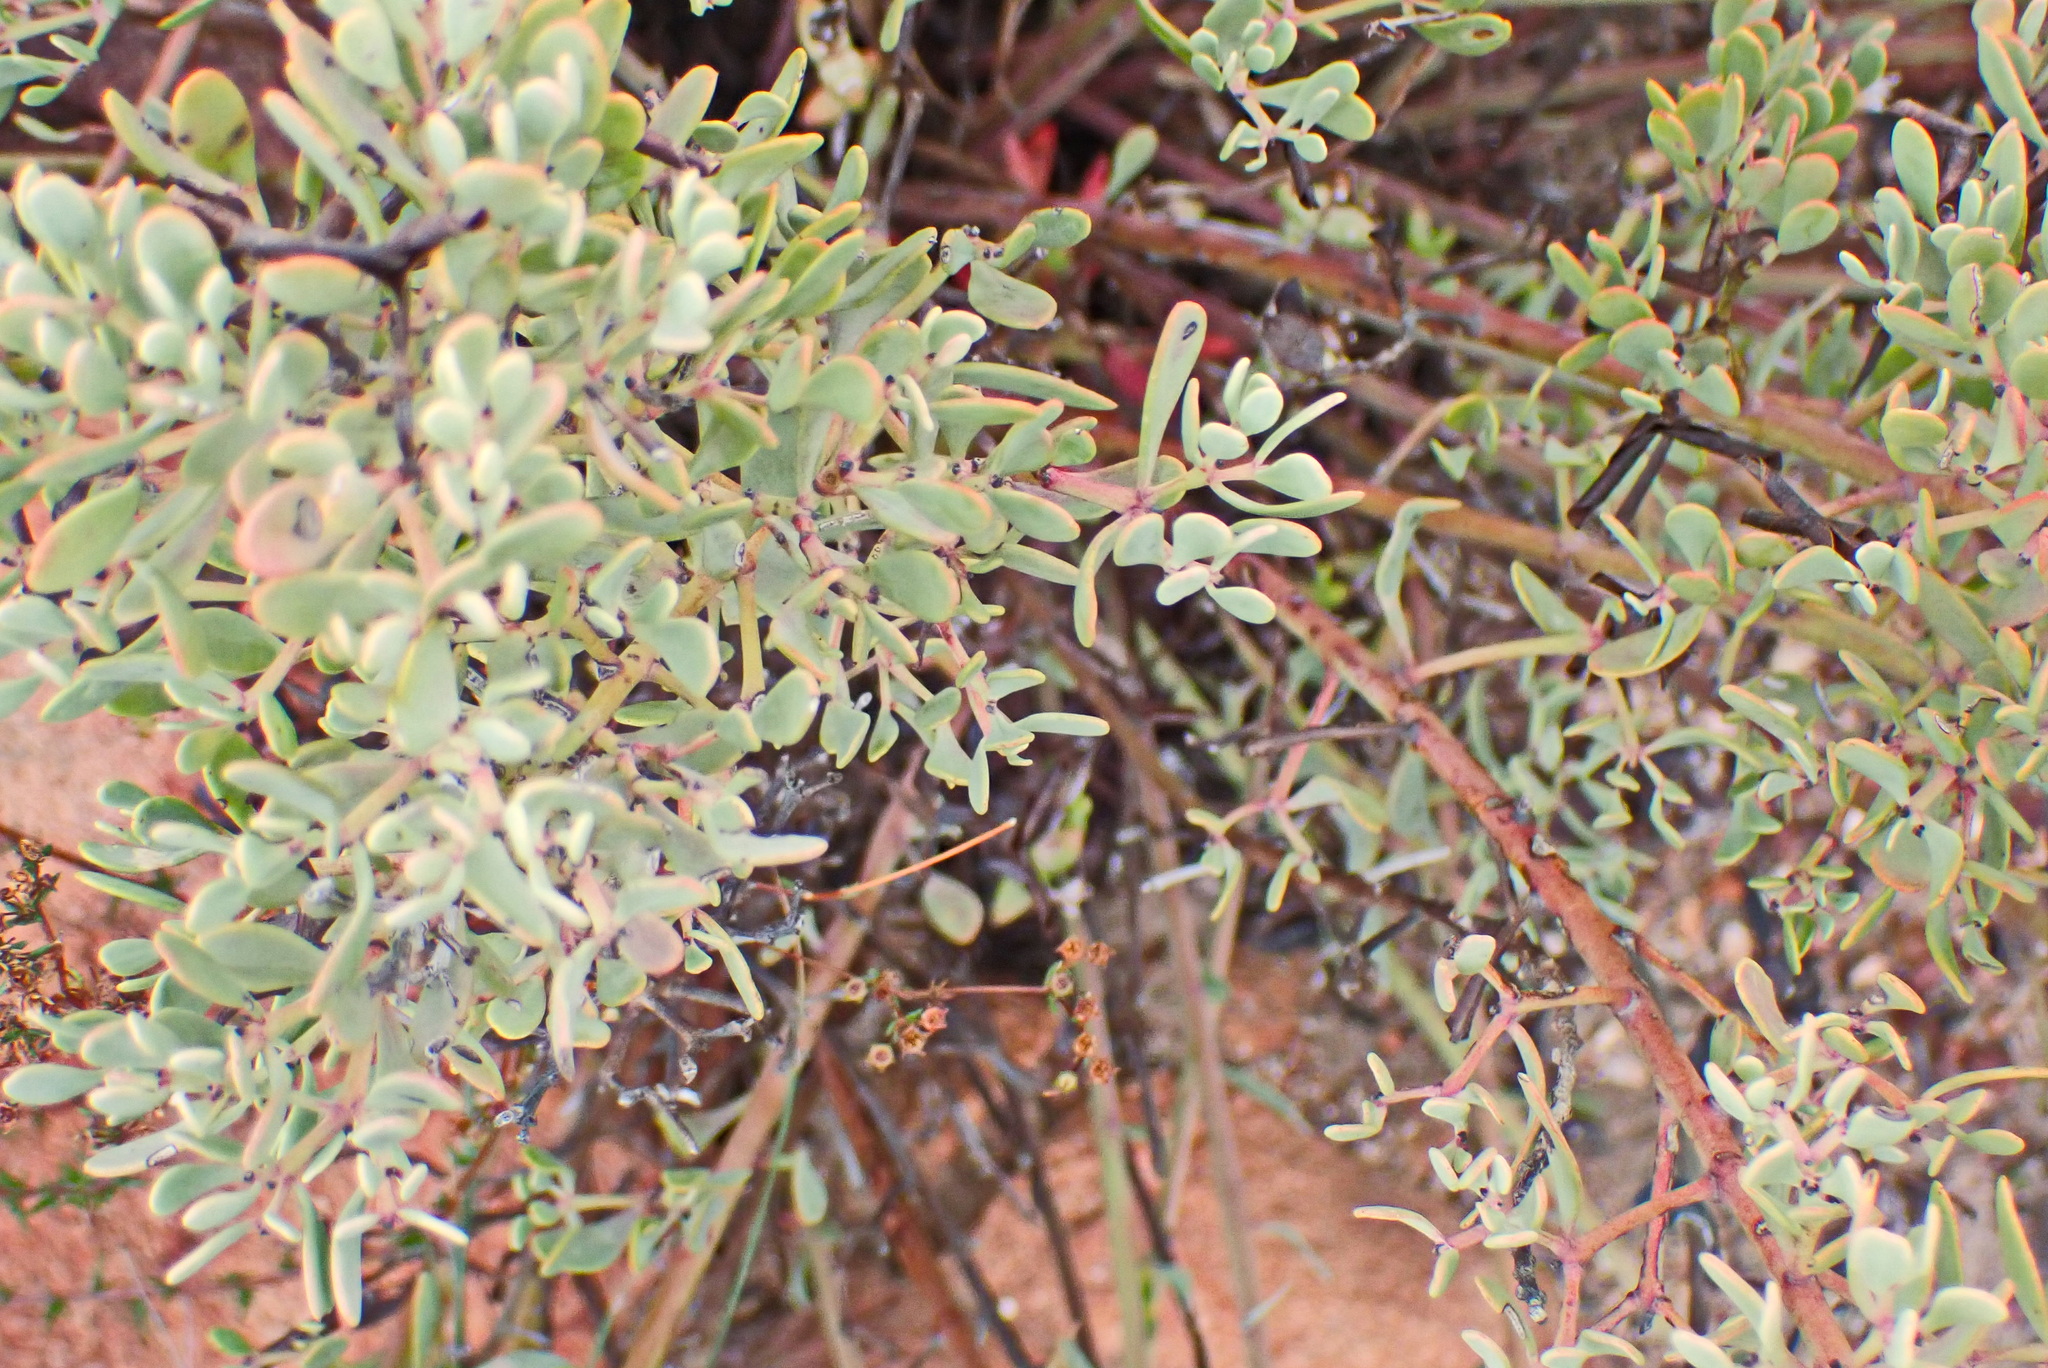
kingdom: Plantae
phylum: Tracheophyta
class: Magnoliopsida
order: Fabales
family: Fabaceae
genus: Rafnia
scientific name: Rafnia capensis
